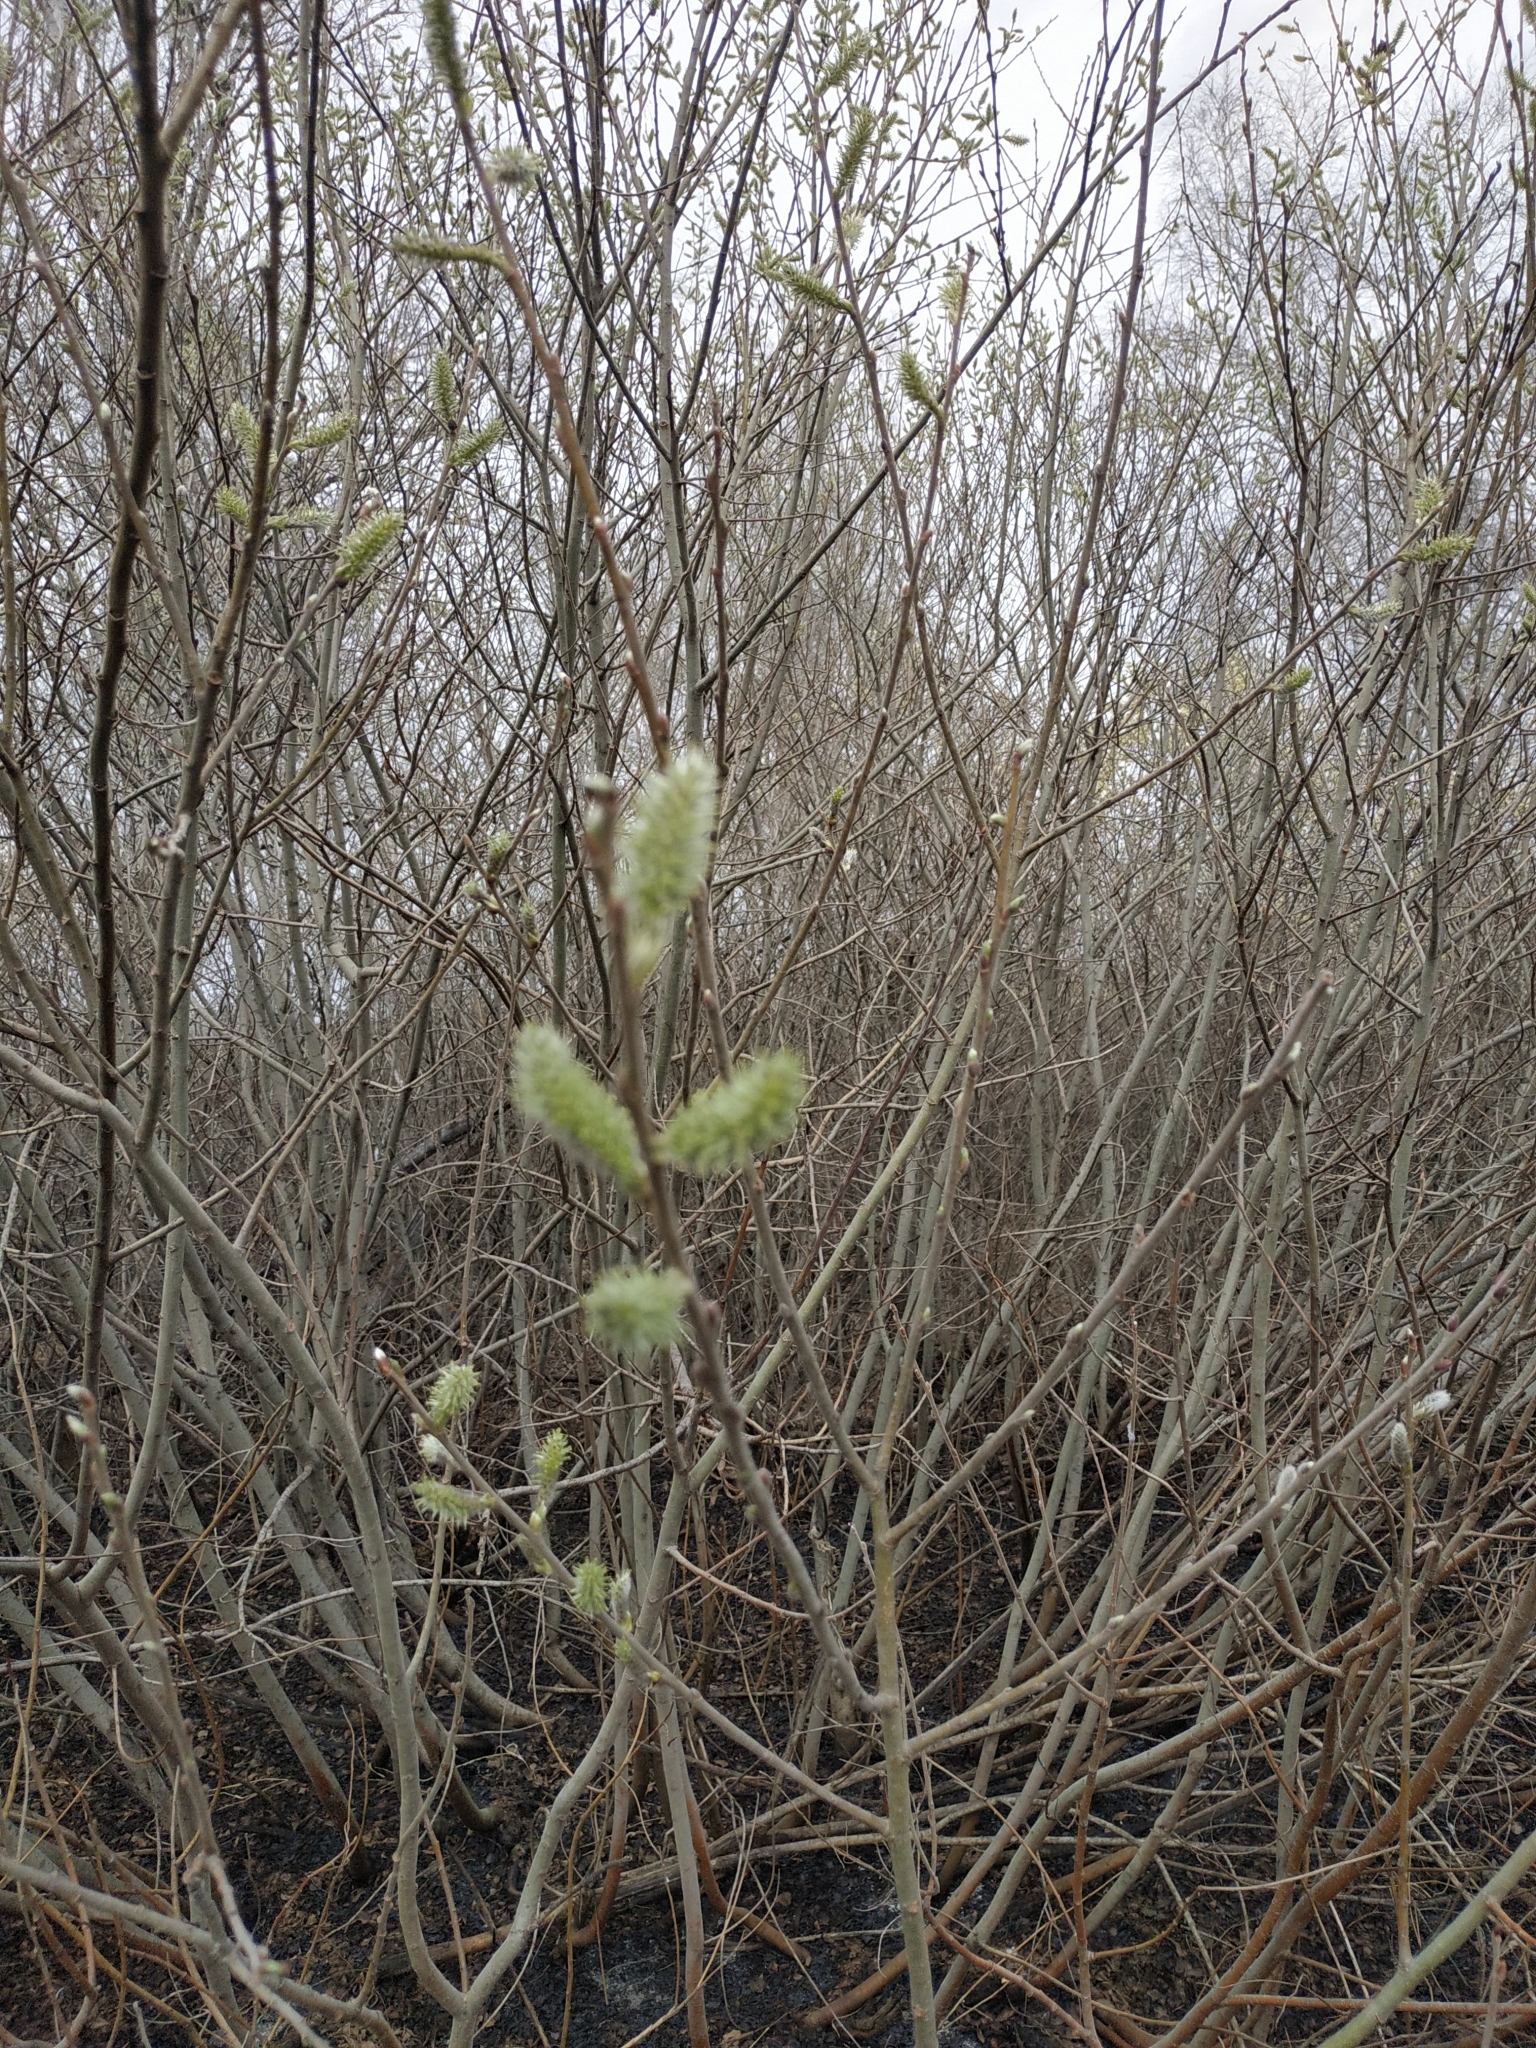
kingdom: Plantae
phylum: Tracheophyta
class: Magnoliopsida
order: Malpighiales
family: Salicaceae
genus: Salix
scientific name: Salix cinerea
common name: Common sallow
